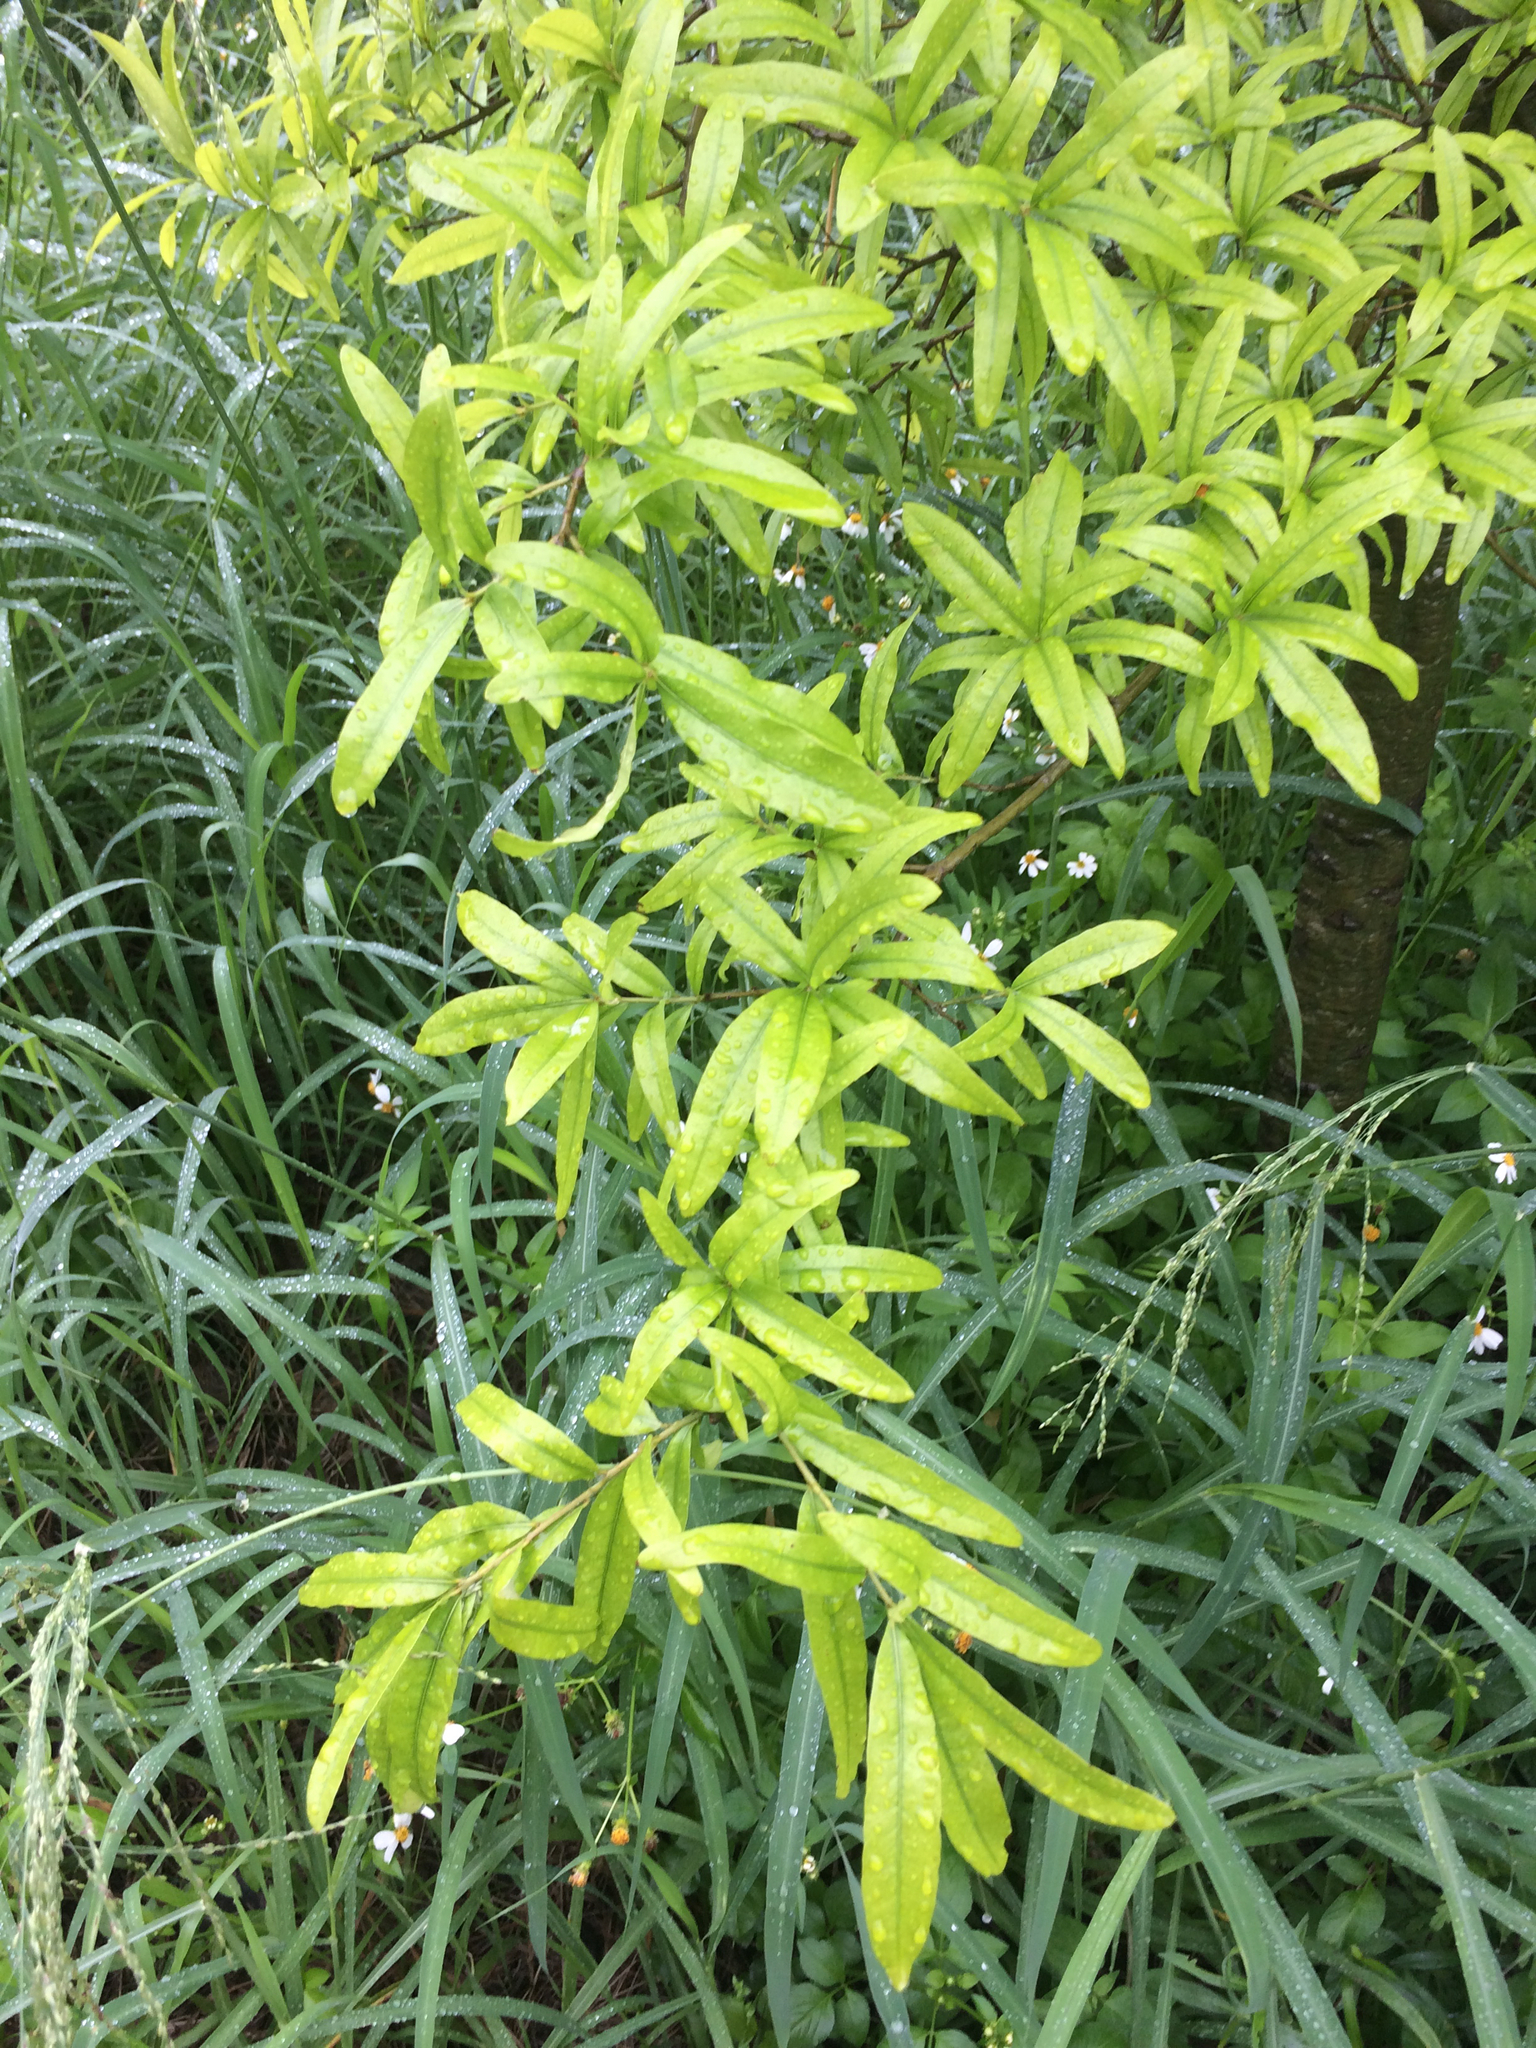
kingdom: Plantae
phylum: Tracheophyta
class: Magnoliopsida
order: Fagales
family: Fagaceae
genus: Quercus
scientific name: Quercus phellos
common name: Willow oak
